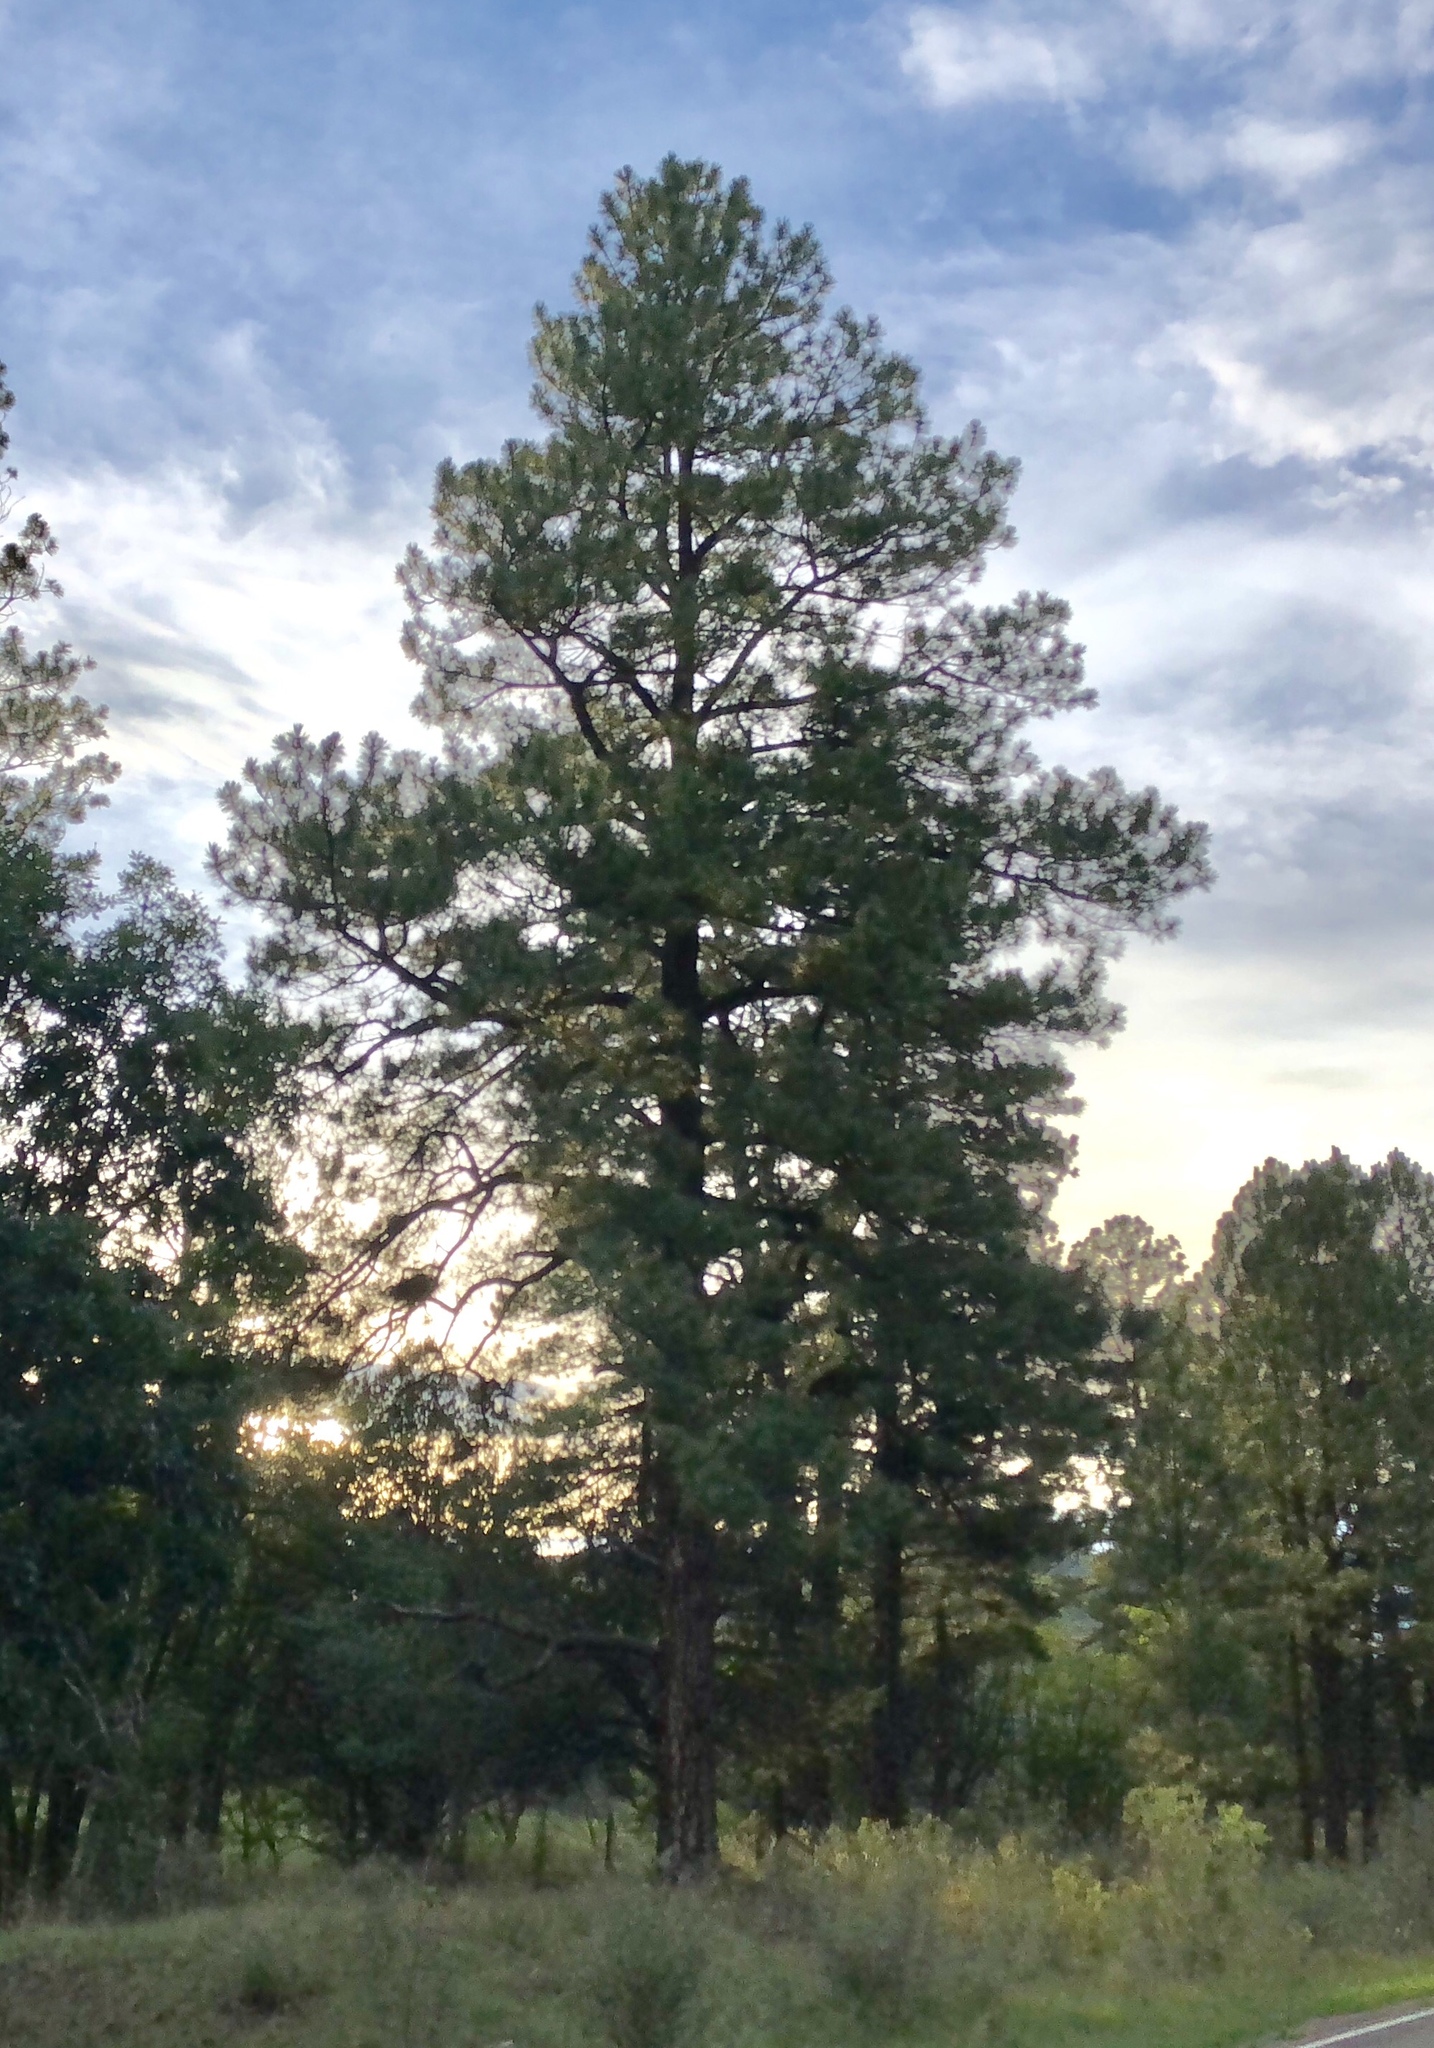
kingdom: Plantae
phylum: Tracheophyta
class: Pinopsida
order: Pinales
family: Pinaceae
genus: Pinus
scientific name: Pinus ponderosa
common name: Western yellow-pine
